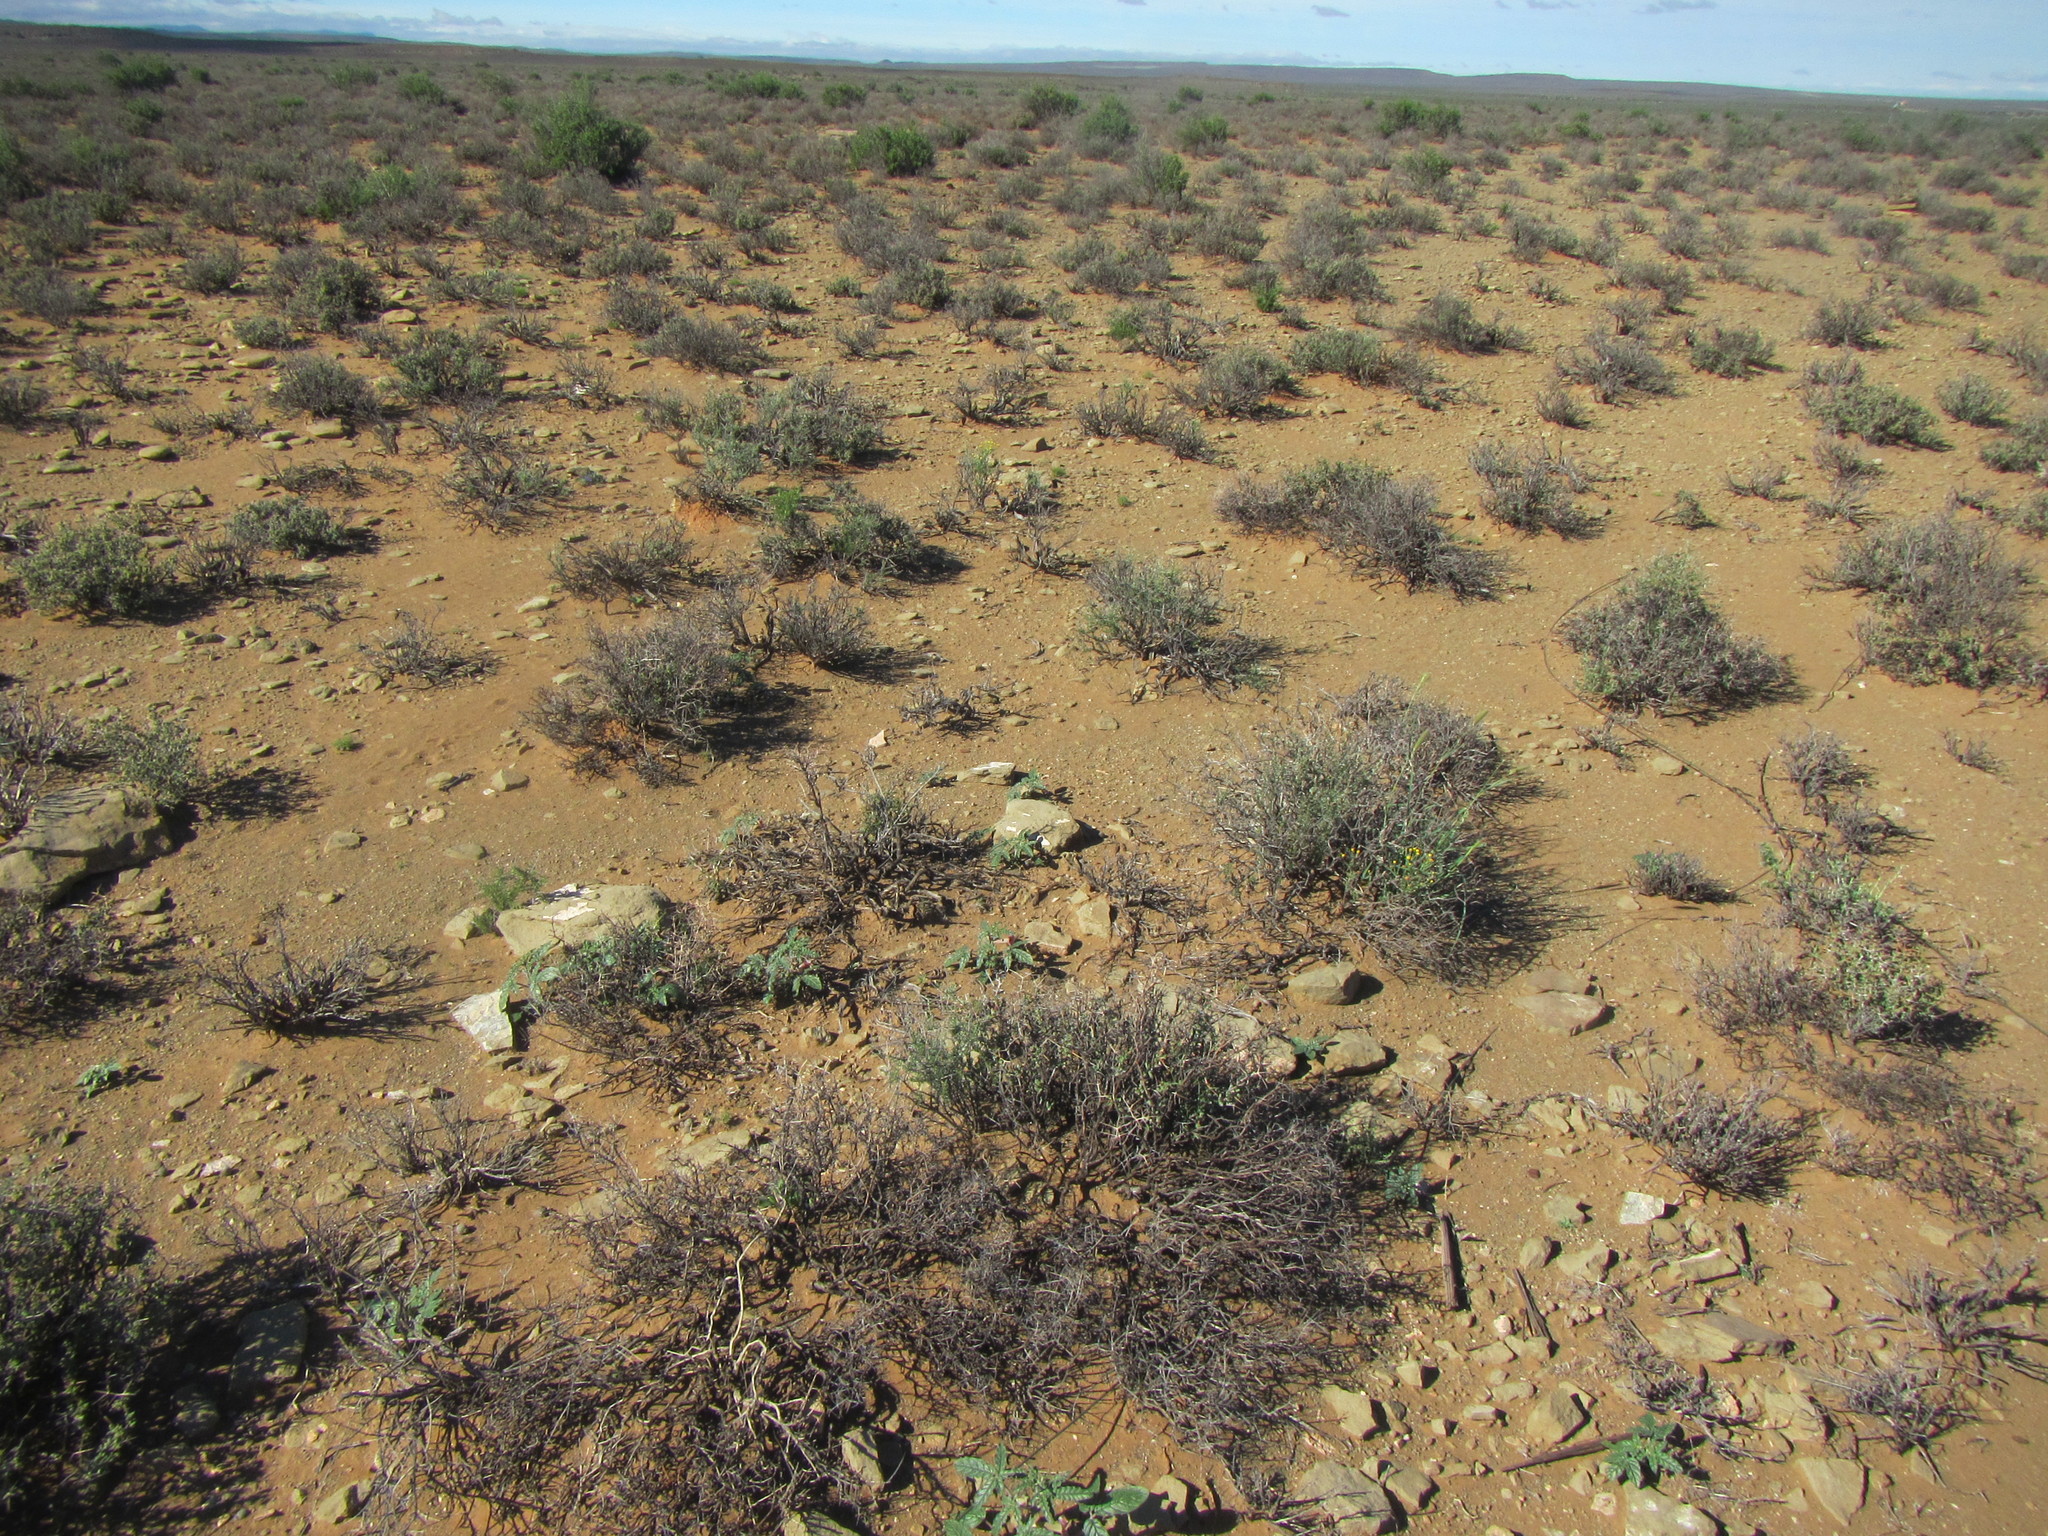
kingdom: Plantae
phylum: Tracheophyta
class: Magnoliopsida
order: Lamiales
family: Pedaliaceae
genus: Sesamum
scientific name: Sesamum capense
